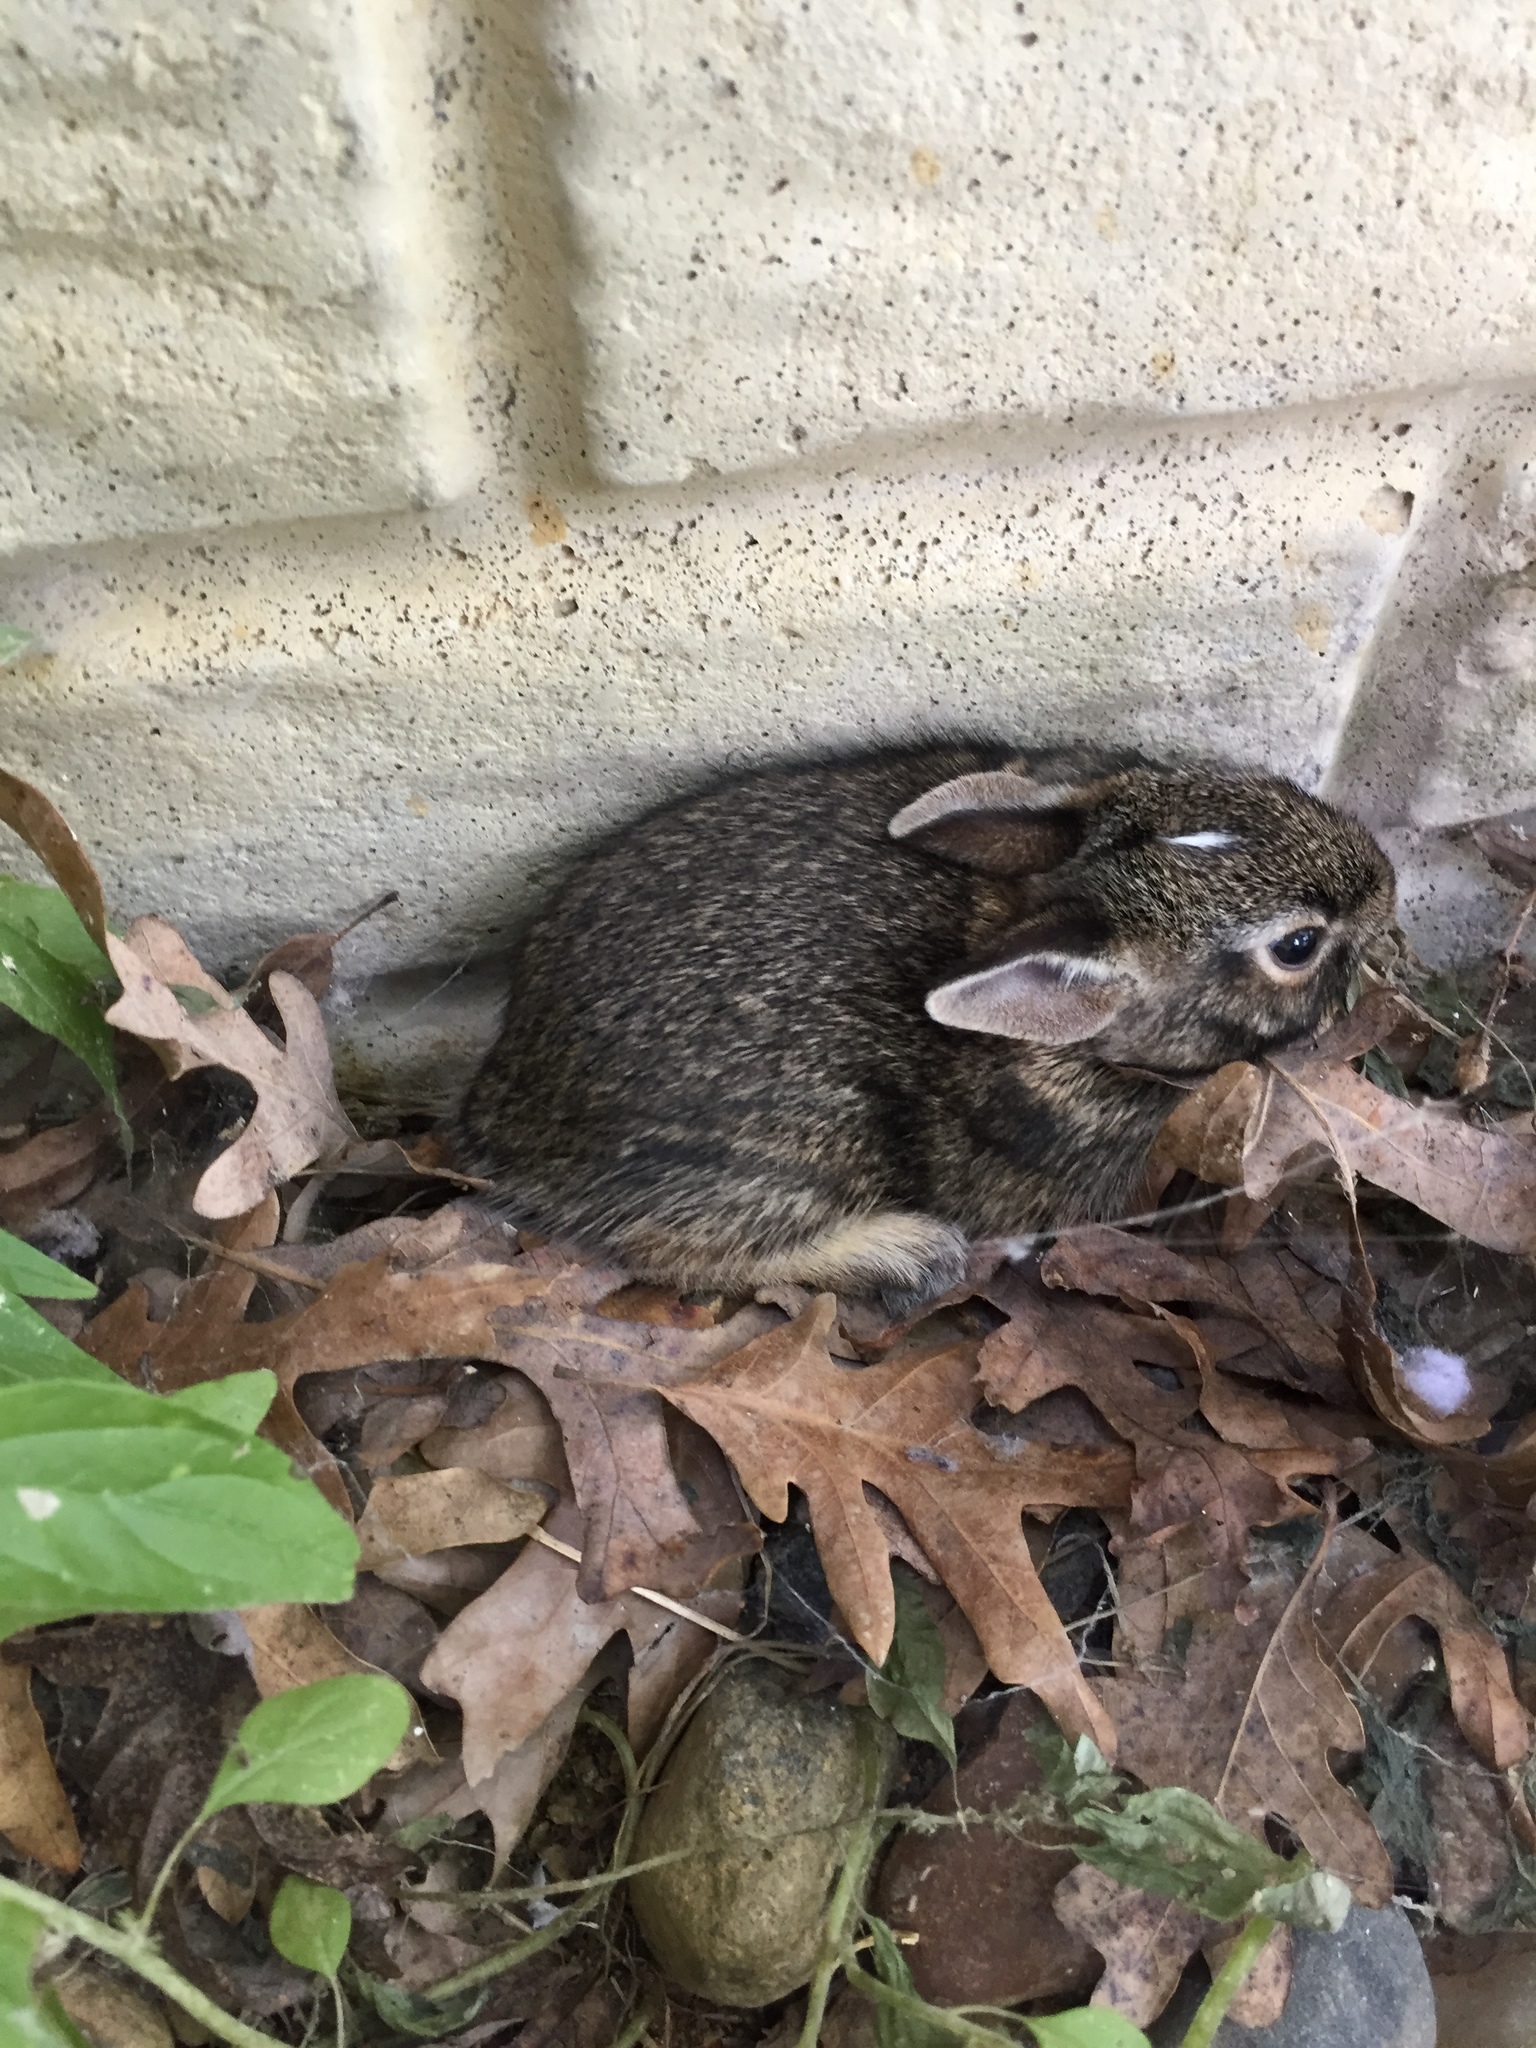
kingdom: Animalia
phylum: Chordata
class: Mammalia
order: Lagomorpha
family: Leporidae
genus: Sylvilagus
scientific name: Sylvilagus floridanus
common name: Eastern cottontail
